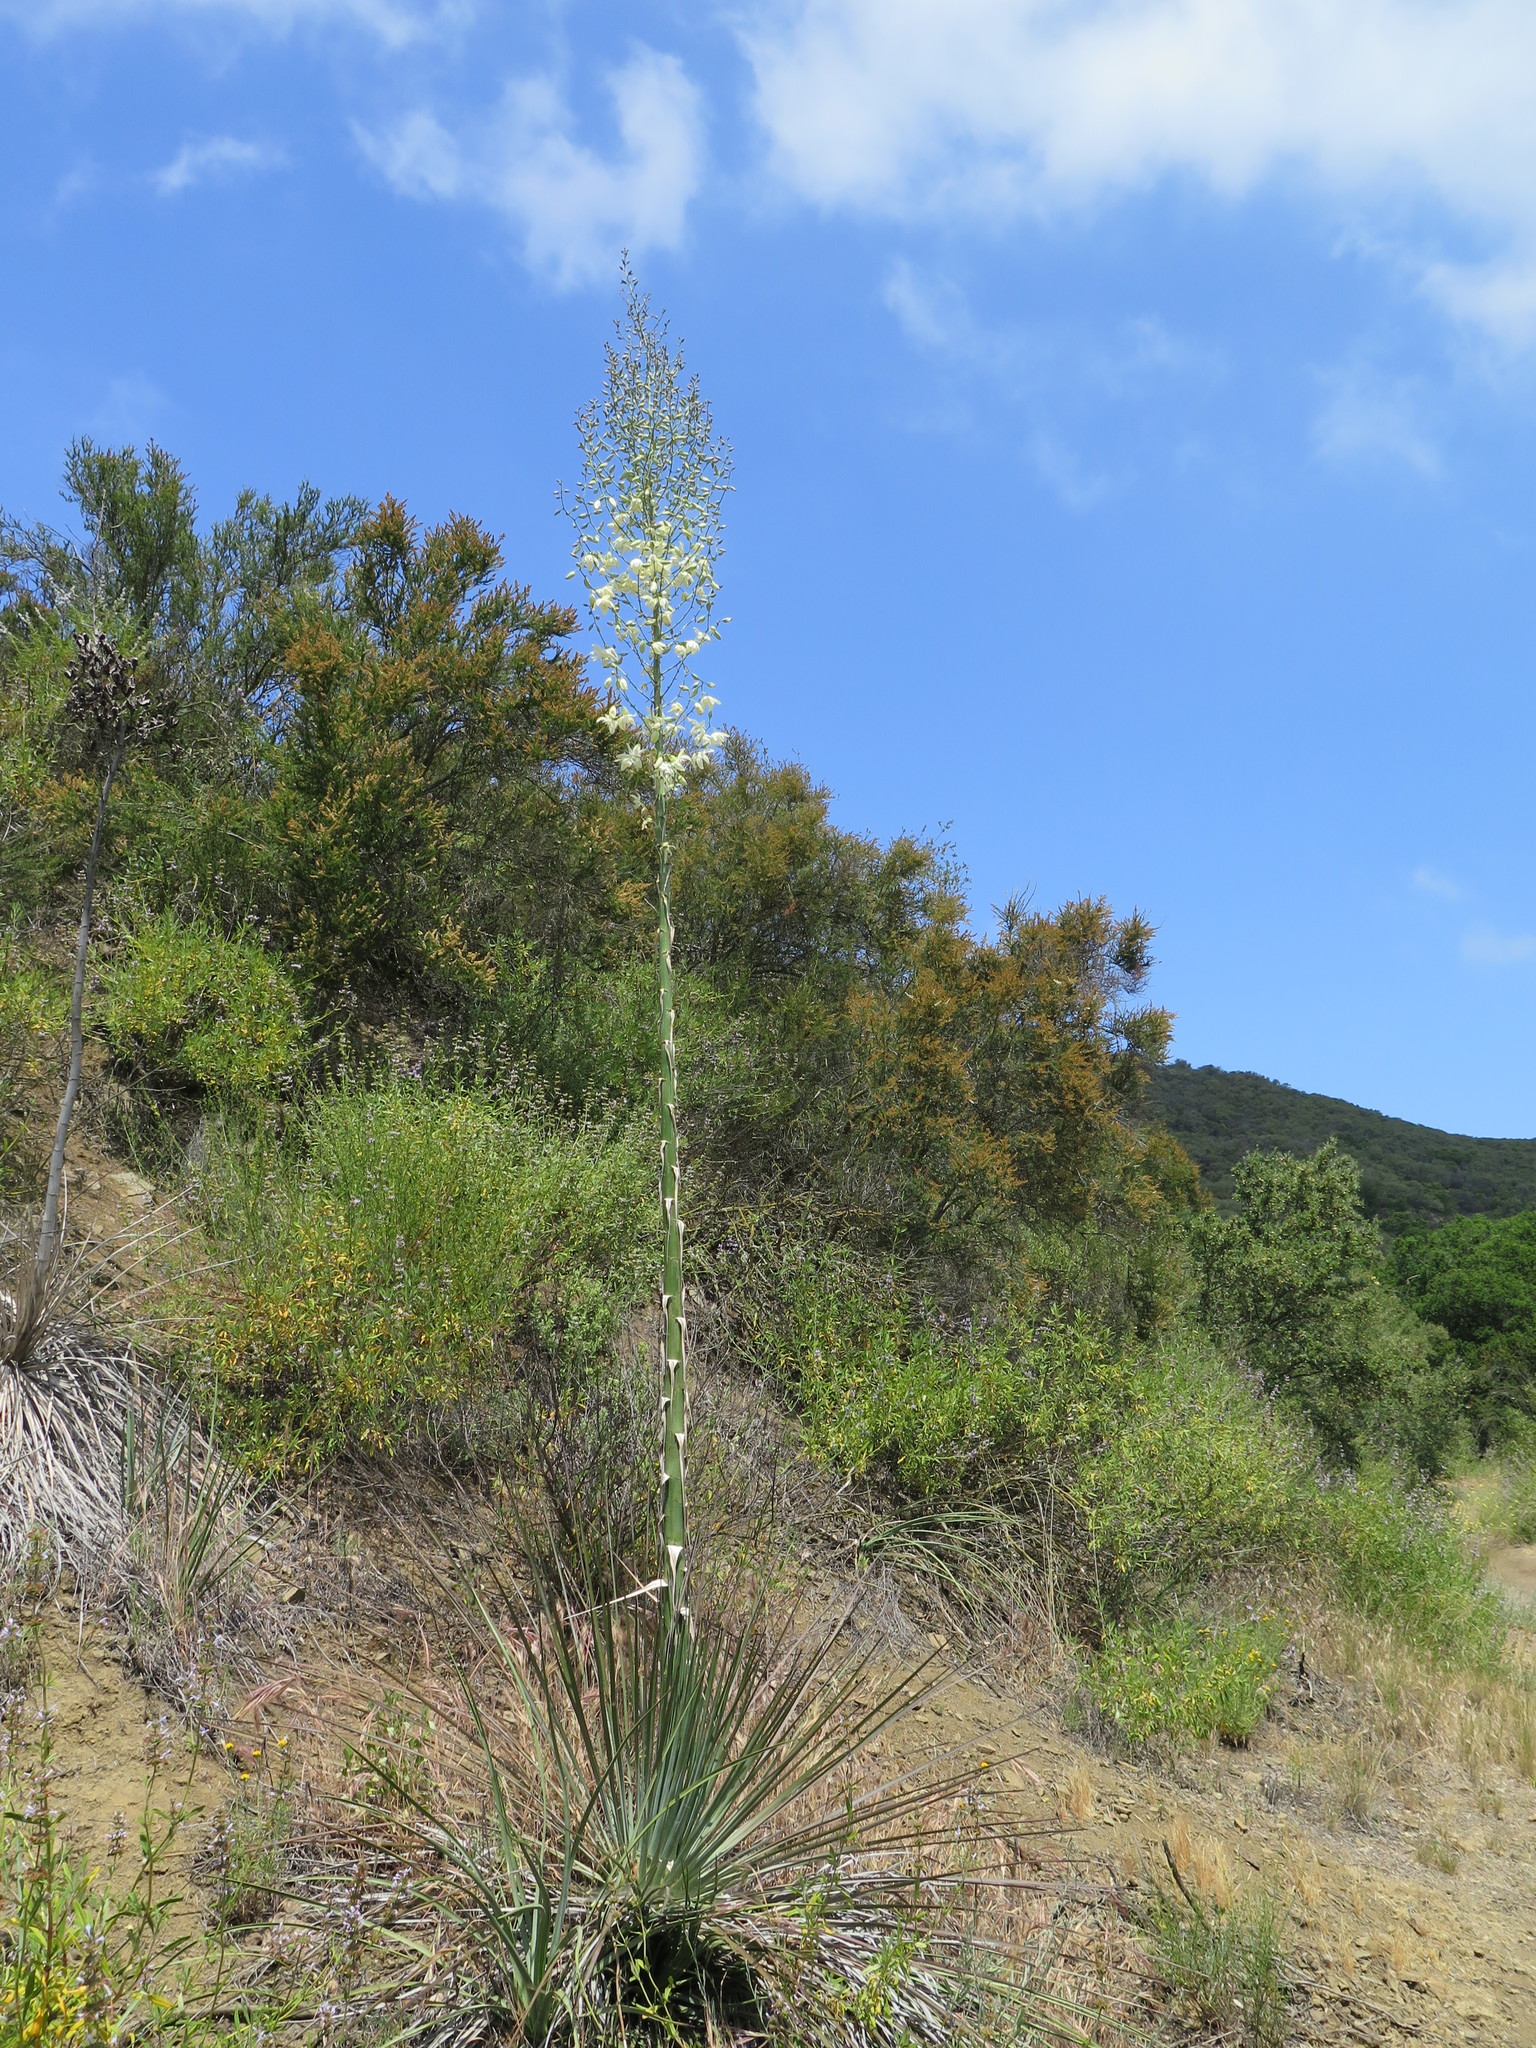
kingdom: Plantae
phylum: Tracheophyta
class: Liliopsida
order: Asparagales
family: Asparagaceae
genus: Hesperoyucca
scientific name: Hesperoyucca whipplei
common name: Our lord's-candle
